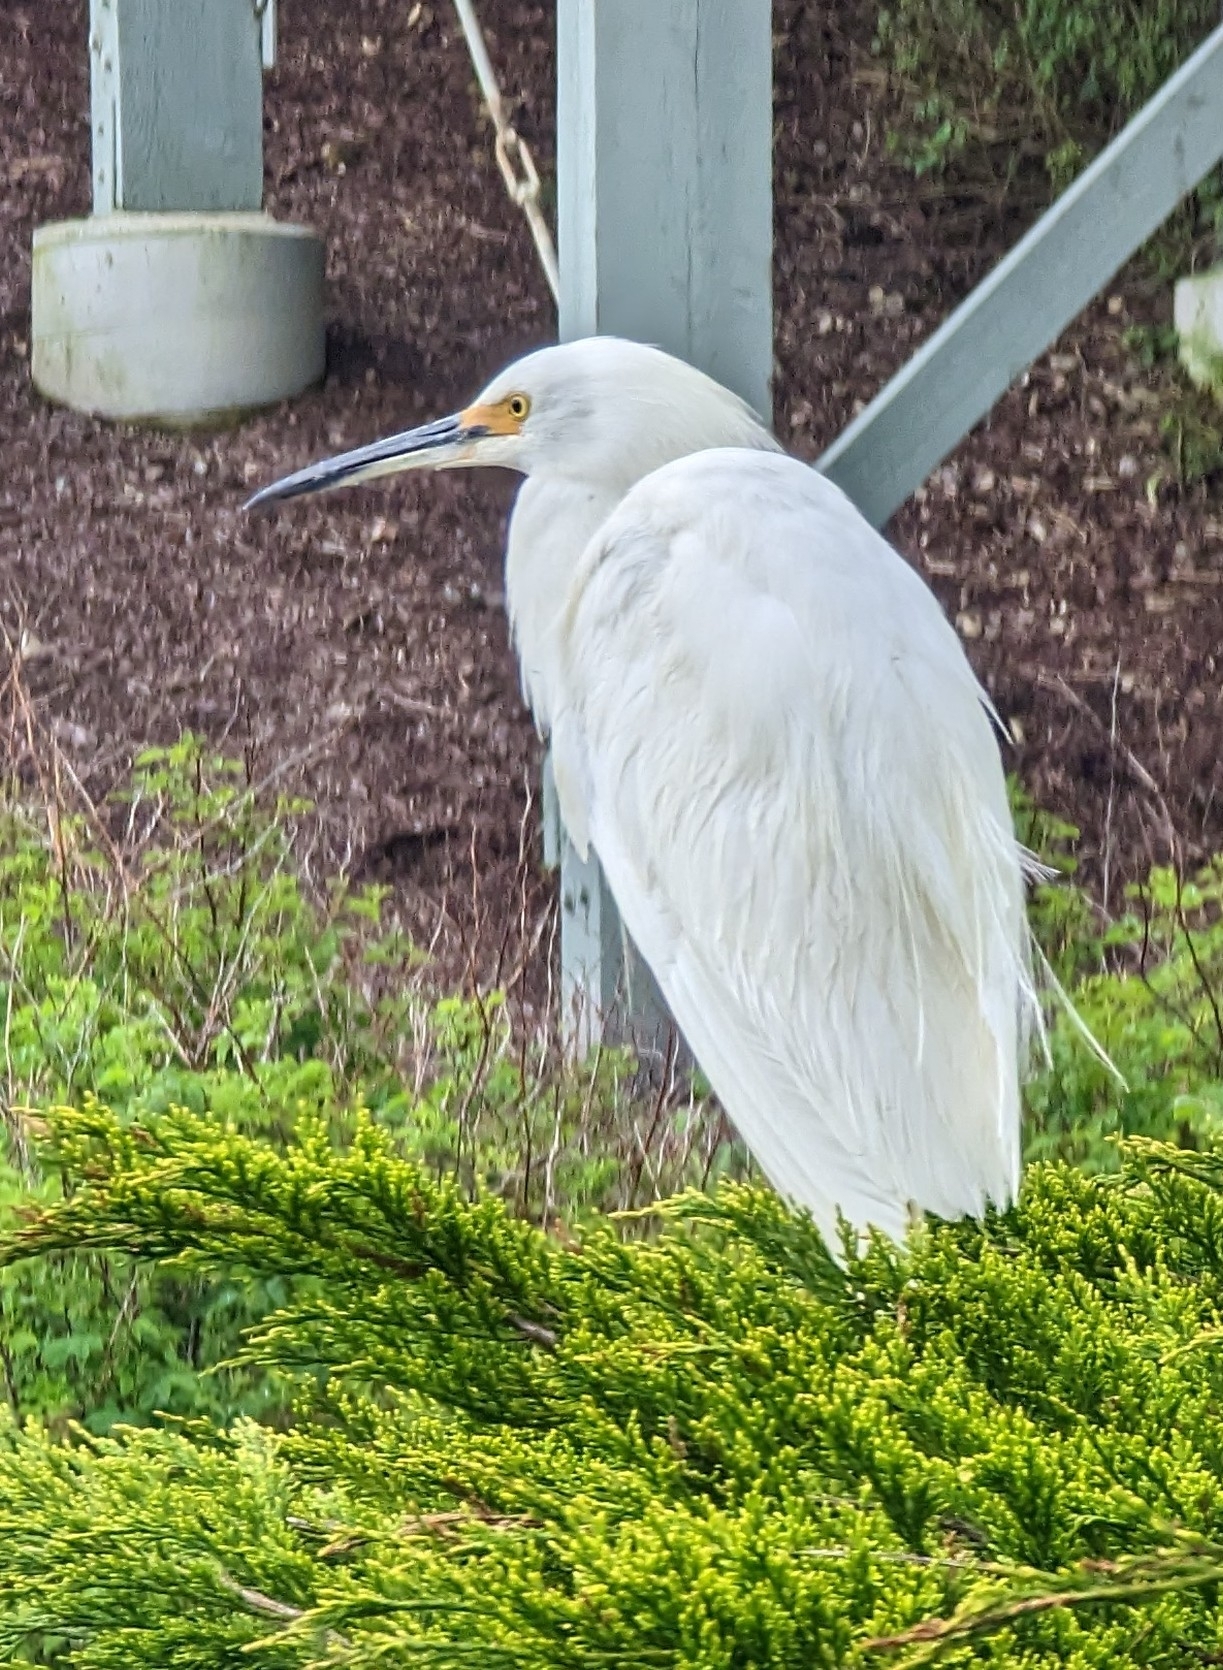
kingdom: Animalia
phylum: Chordata
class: Aves
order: Pelecaniformes
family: Ardeidae
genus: Egretta
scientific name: Egretta thula
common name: Snowy egret
